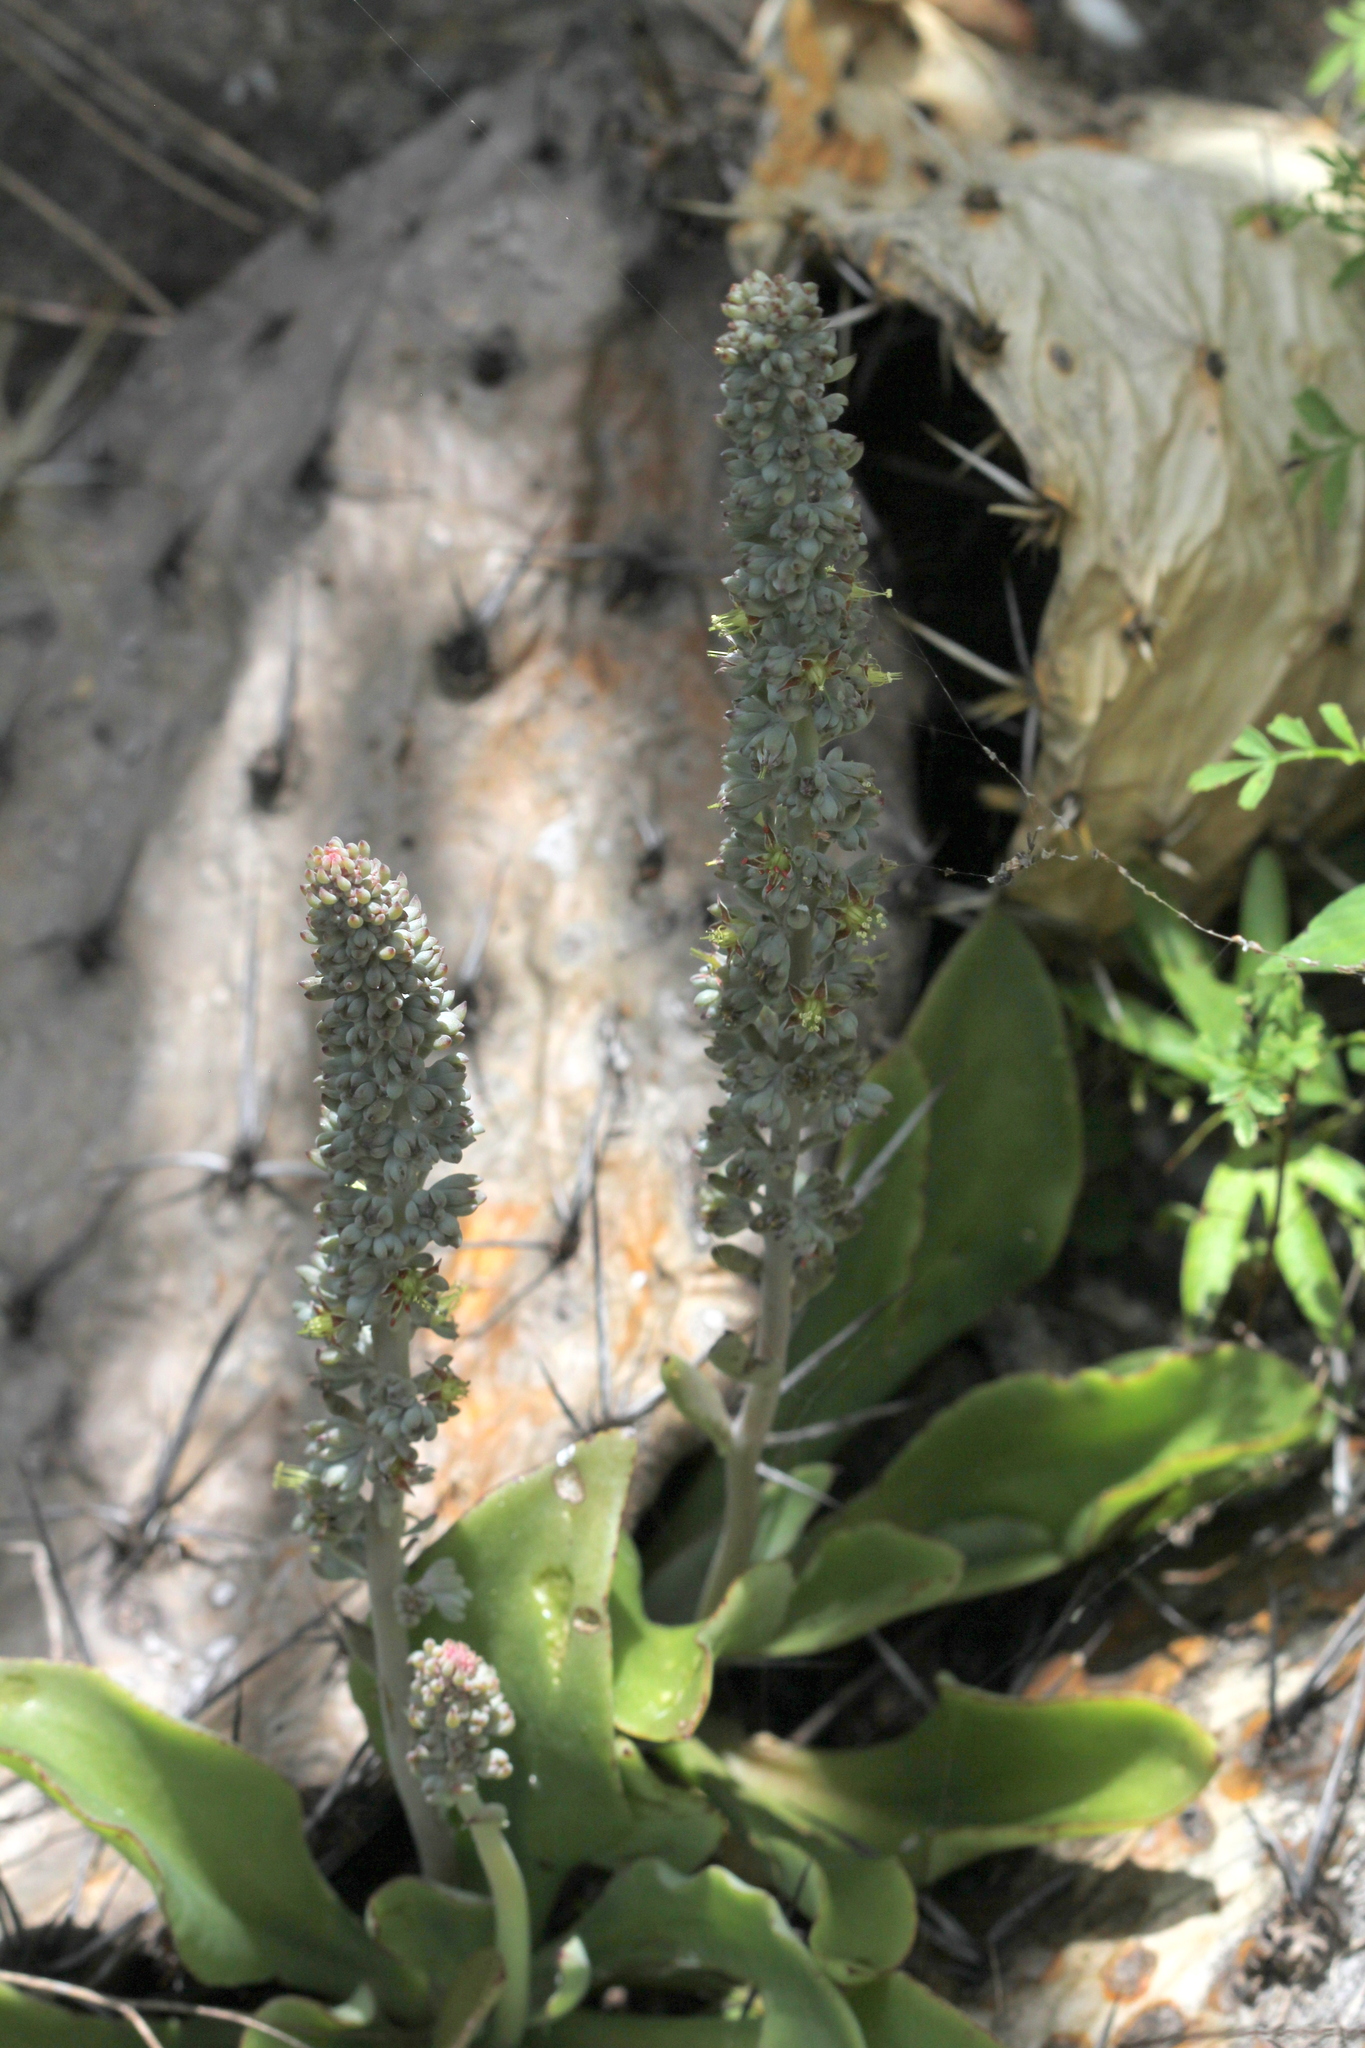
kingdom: Plantae
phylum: Tracheophyta
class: Magnoliopsida
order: Saxifragales
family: Crassulaceae
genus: Thompsonella
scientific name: Thompsonella minutiflora
